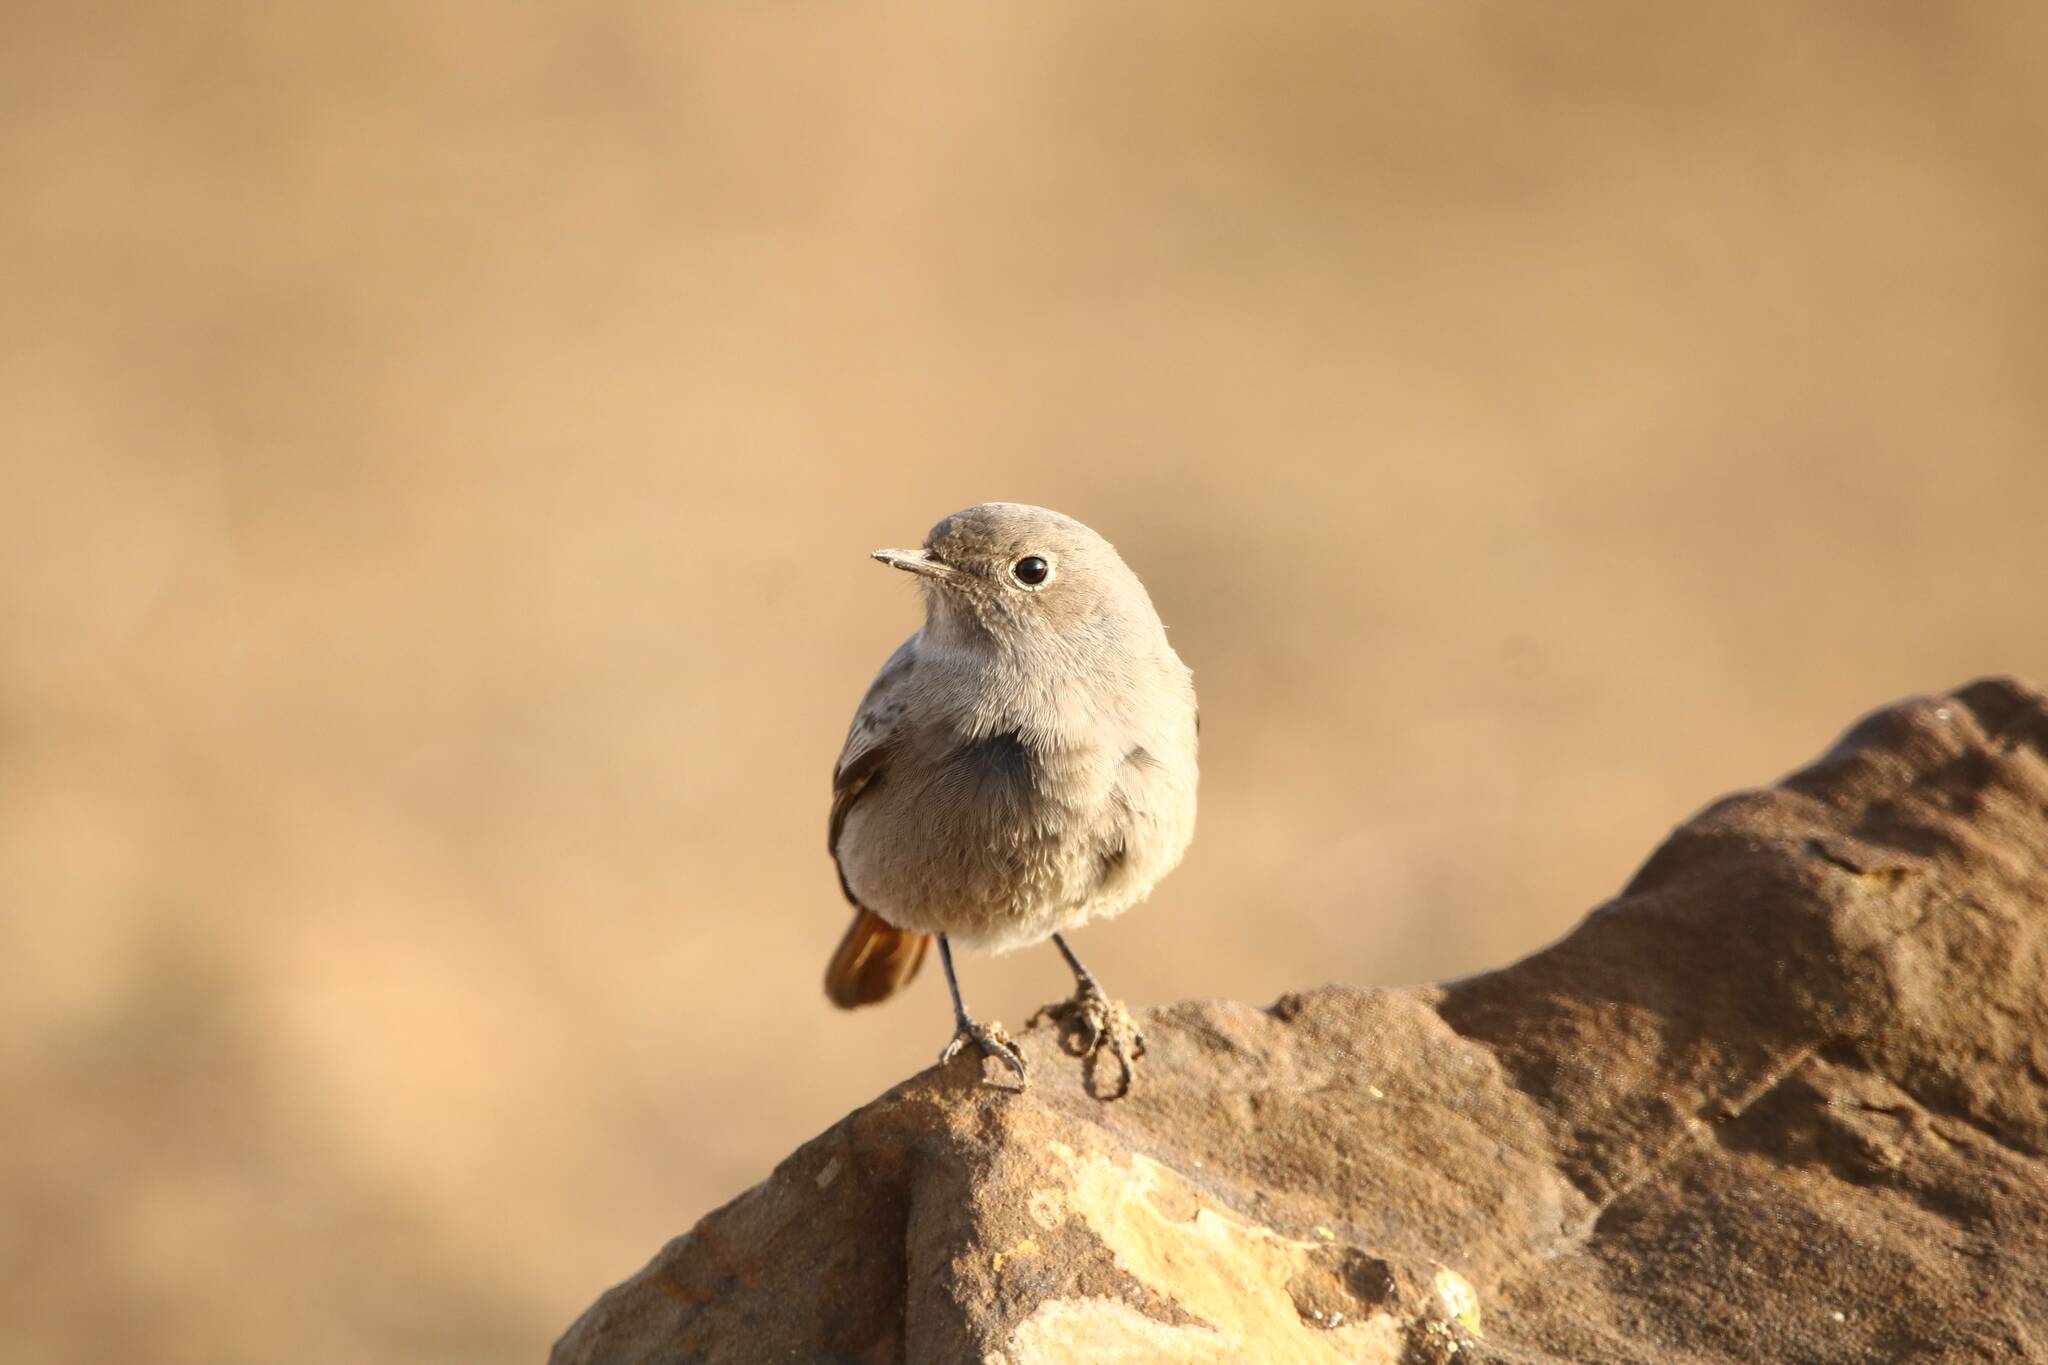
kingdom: Animalia
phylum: Chordata
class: Aves
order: Passeriformes
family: Muscicapidae
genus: Phoenicurus
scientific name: Phoenicurus ochruros
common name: Black redstart
